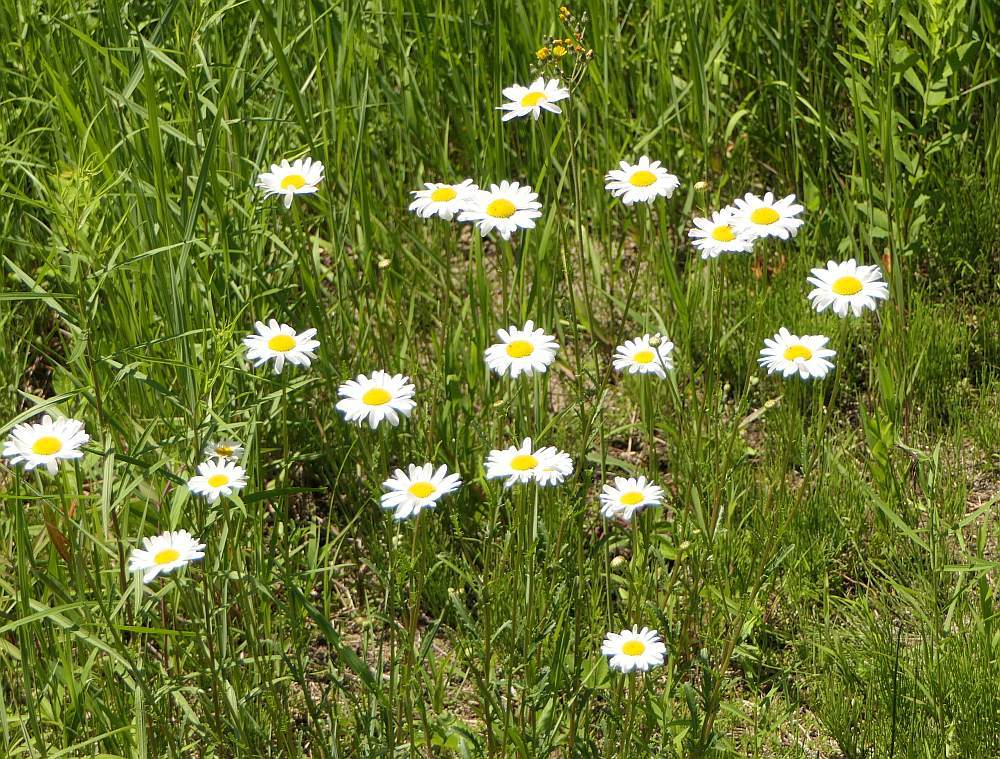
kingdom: Plantae
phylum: Tracheophyta
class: Magnoliopsida
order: Asterales
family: Asteraceae
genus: Leucanthemum
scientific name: Leucanthemum vulgare
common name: Oxeye daisy
